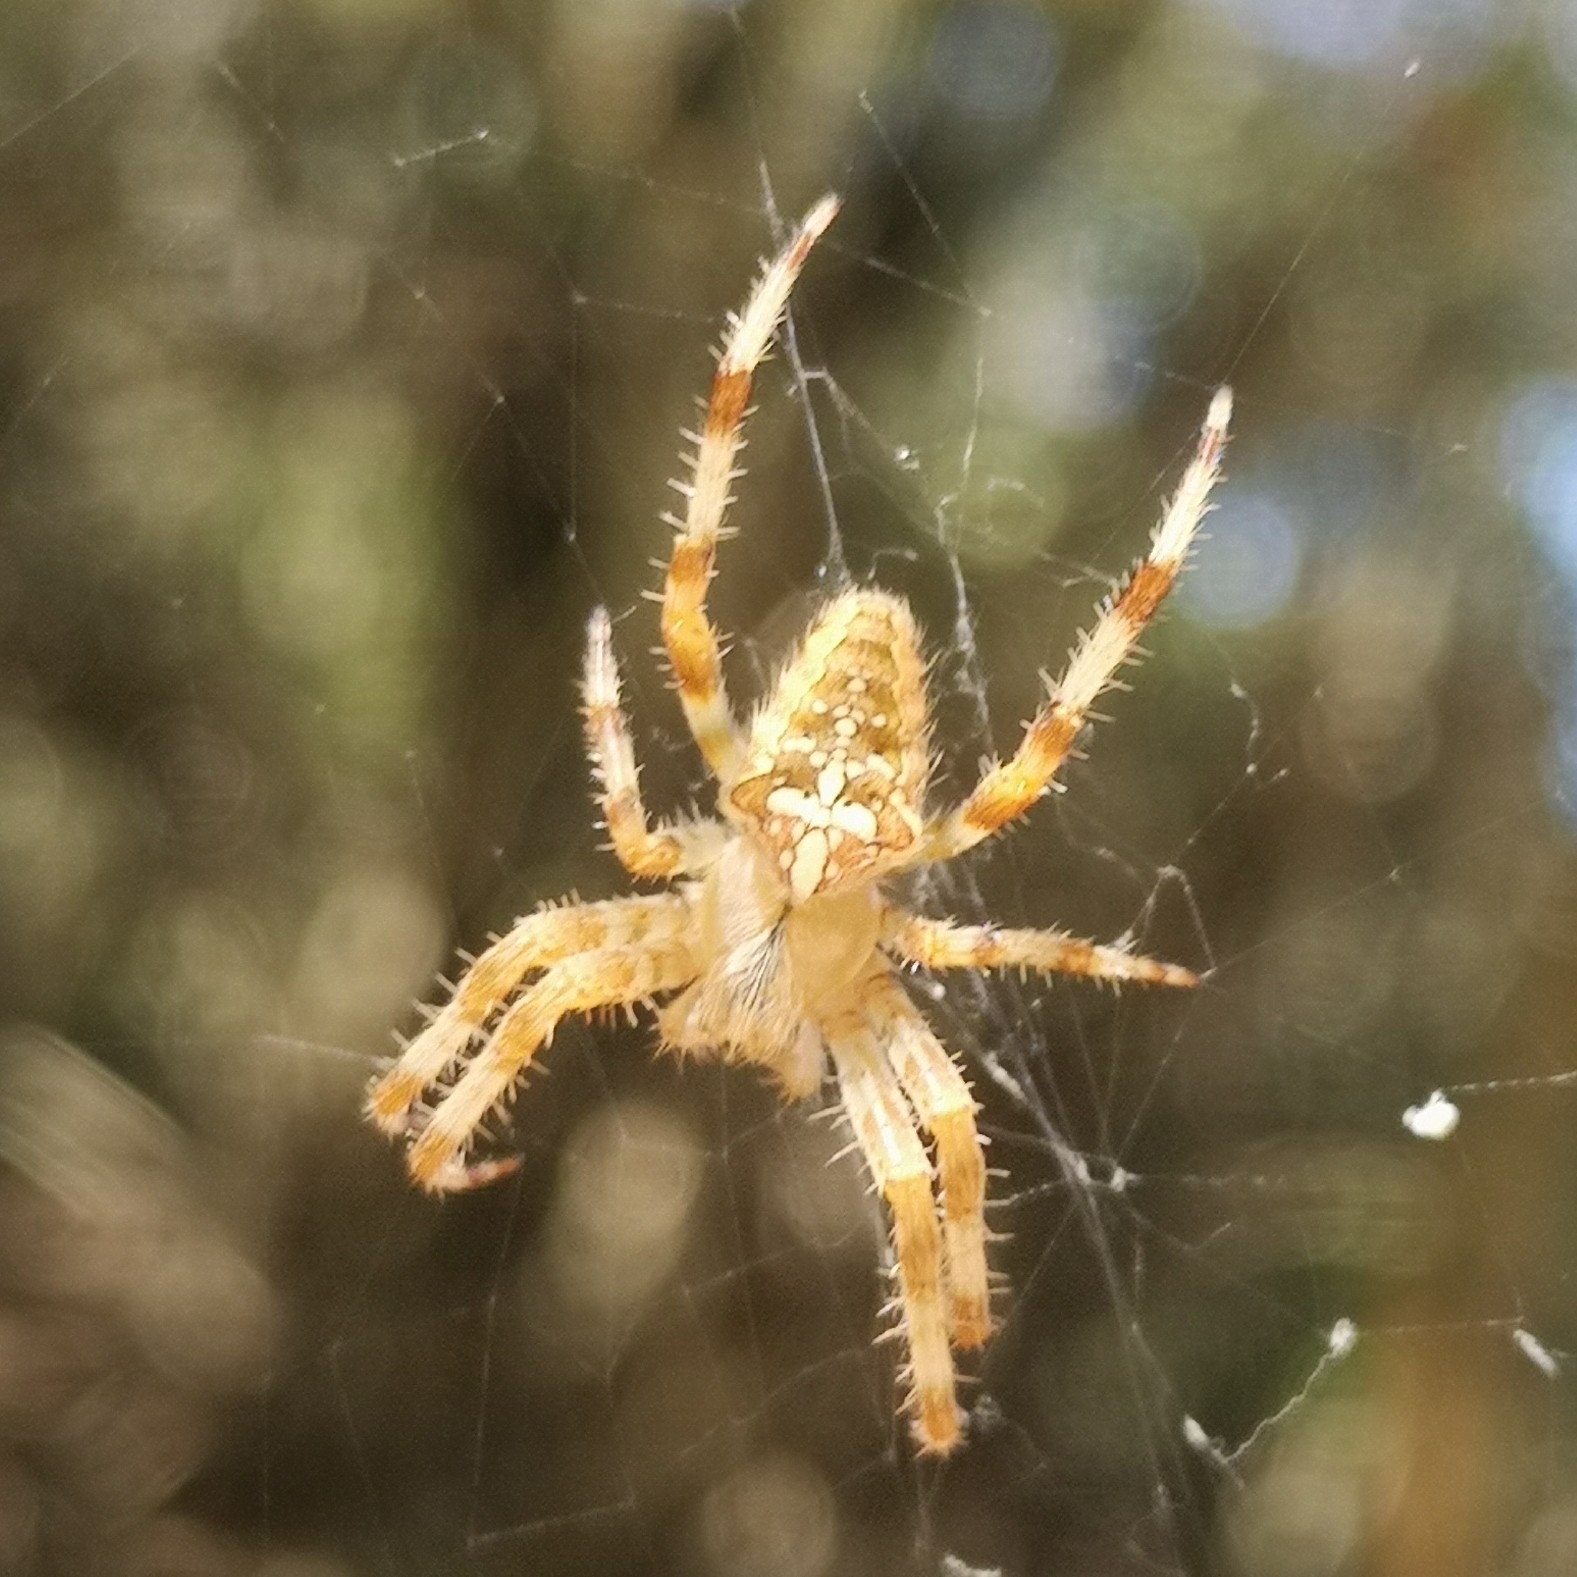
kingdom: Animalia
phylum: Arthropoda
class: Arachnida
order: Araneae
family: Araneidae
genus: Araneus
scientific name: Araneus diadematus
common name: Cross orbweaver
